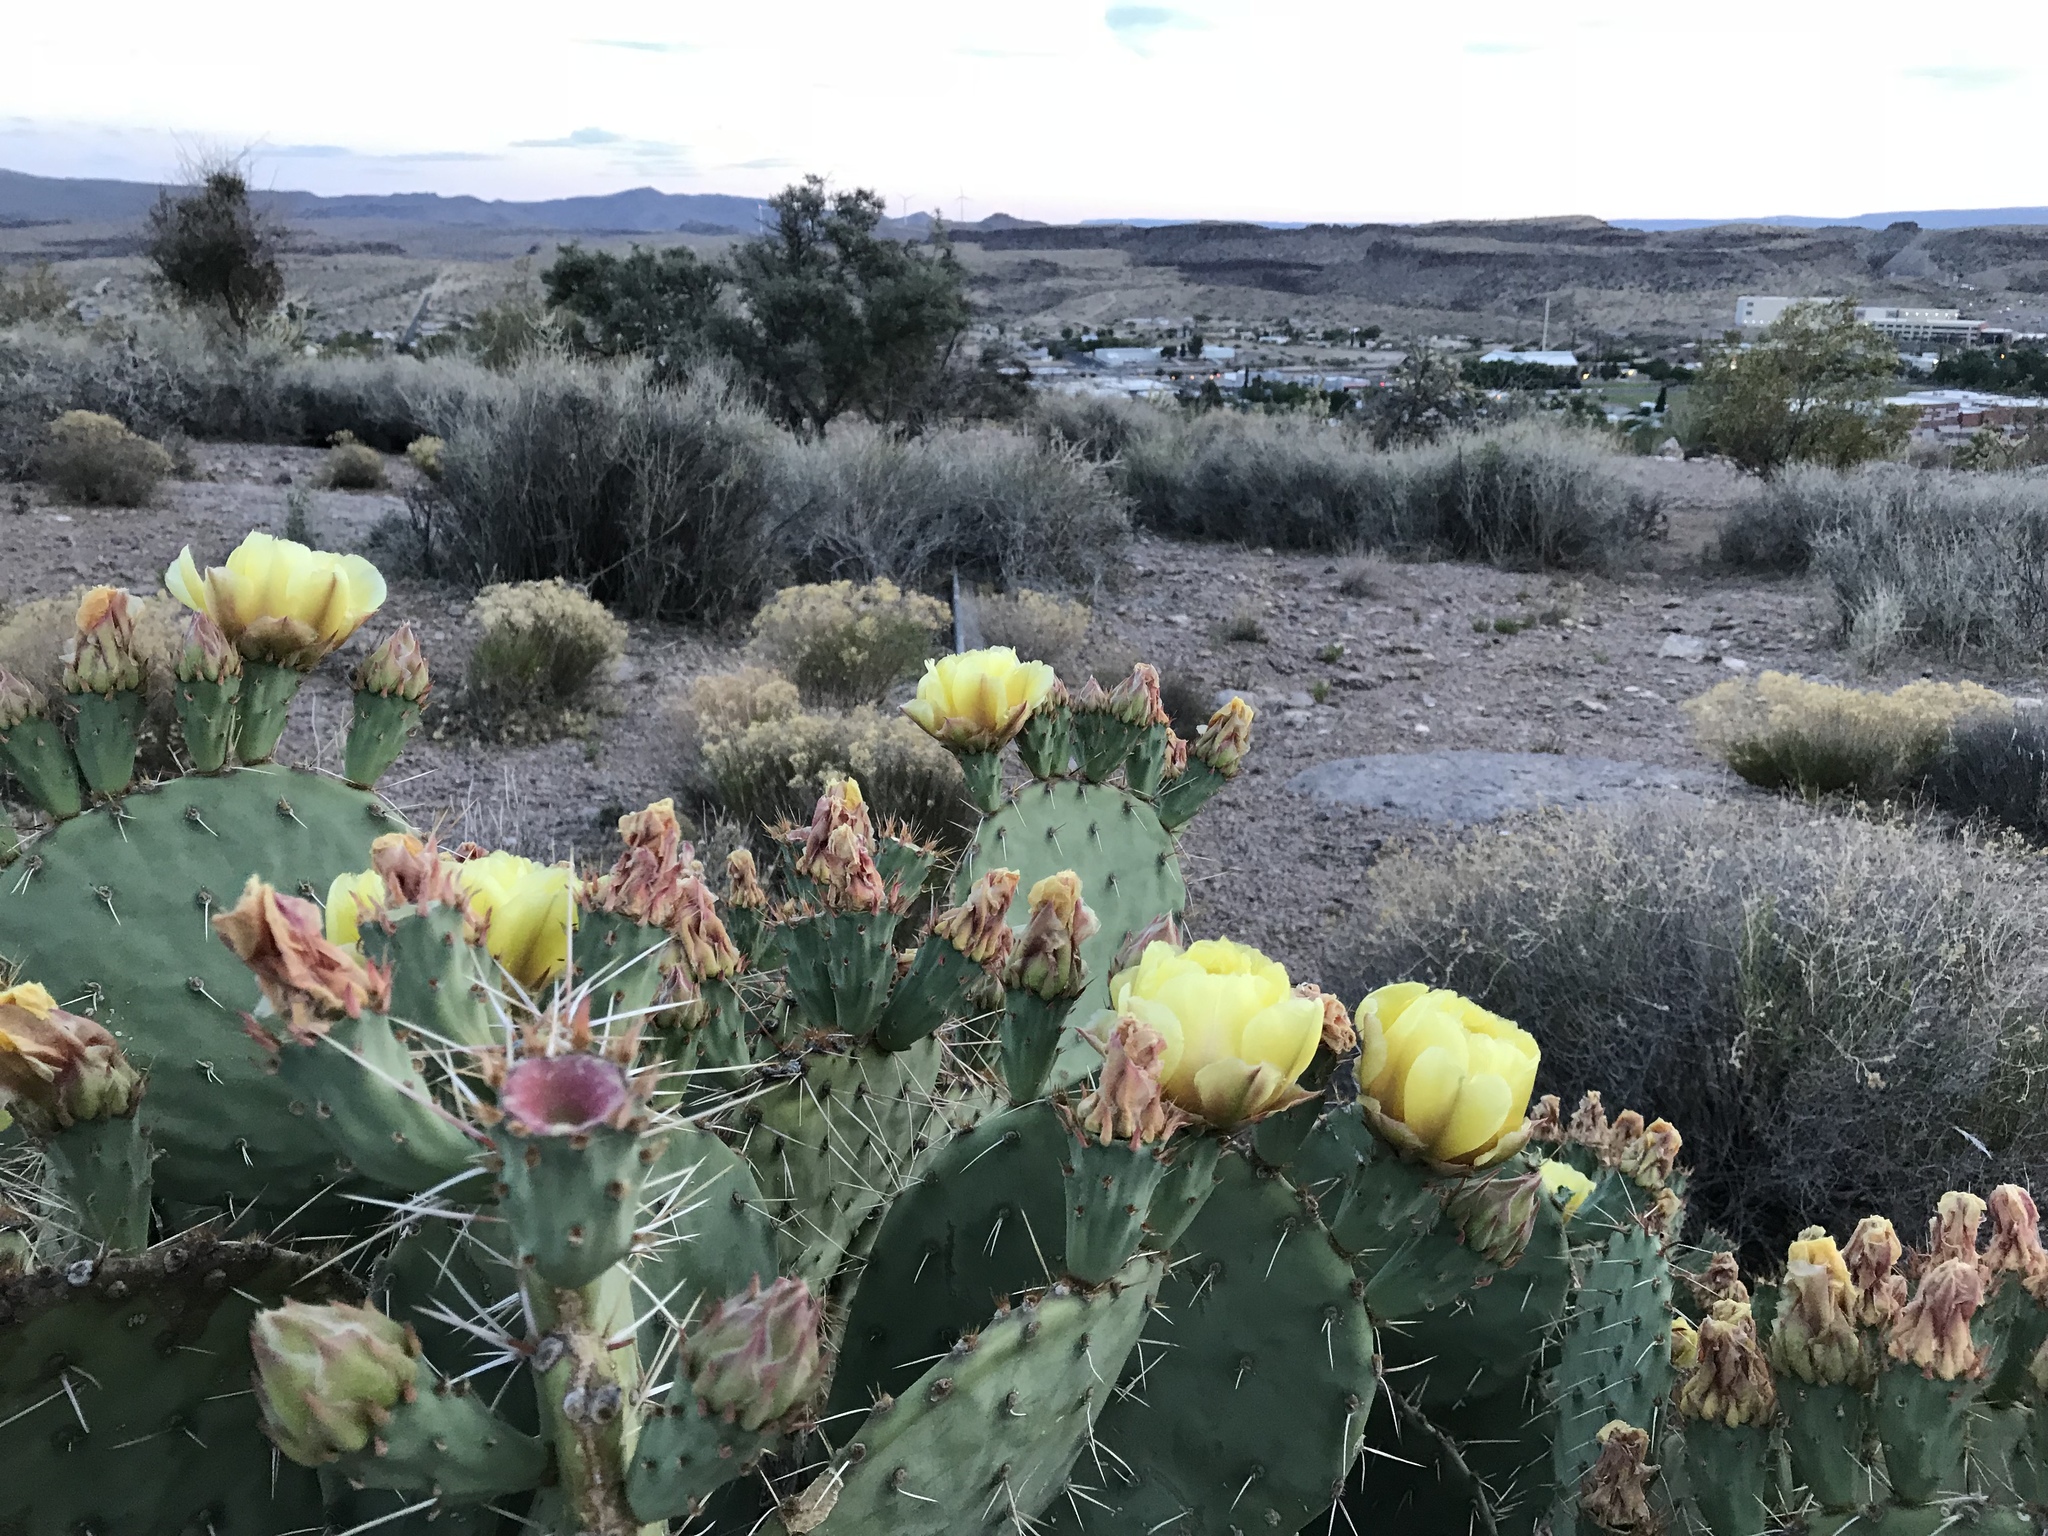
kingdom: Plantae
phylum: Tracheophyta
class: Magnoliopsida
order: Caryophyllales
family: Cactaceae
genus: Opuntia
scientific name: Opuntia engelmannii
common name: Cactus-apple
